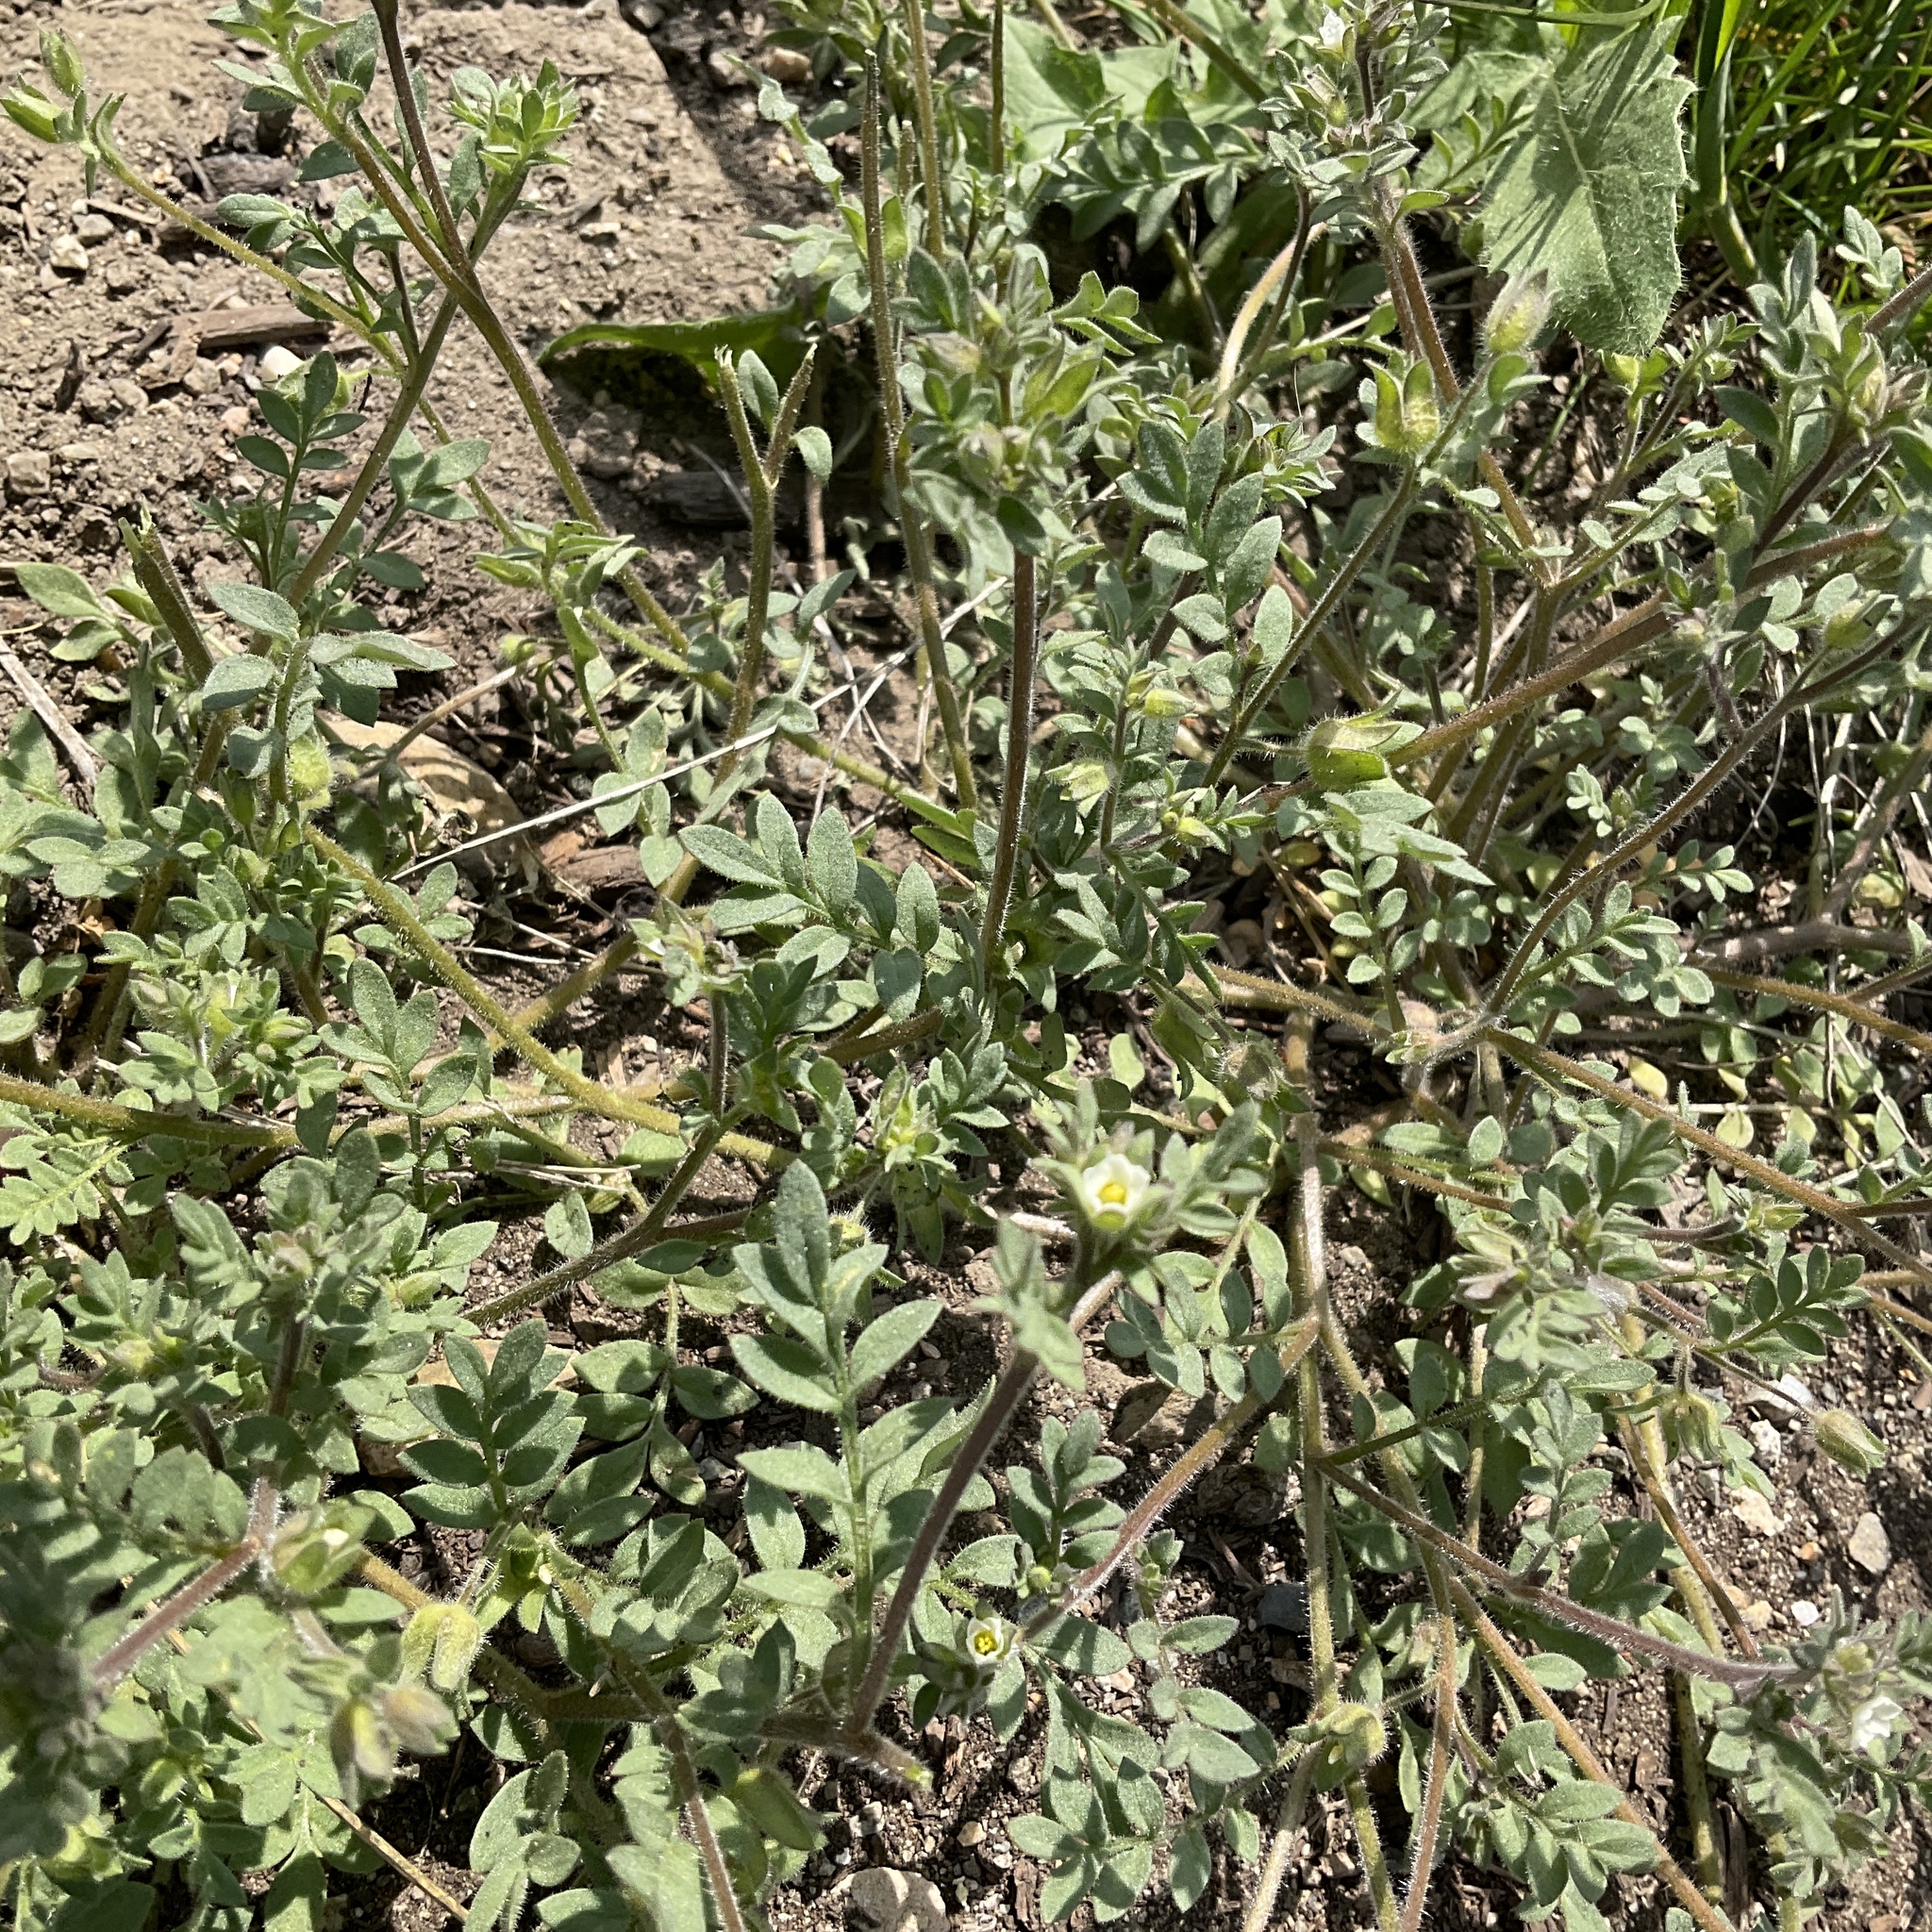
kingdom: Plantae
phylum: Tracheophyta
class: Magnoliopsida
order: Ericales
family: Polemoniaceae
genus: Polemonium
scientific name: Polemonium micranthum
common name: Annual jacob's-ladder
